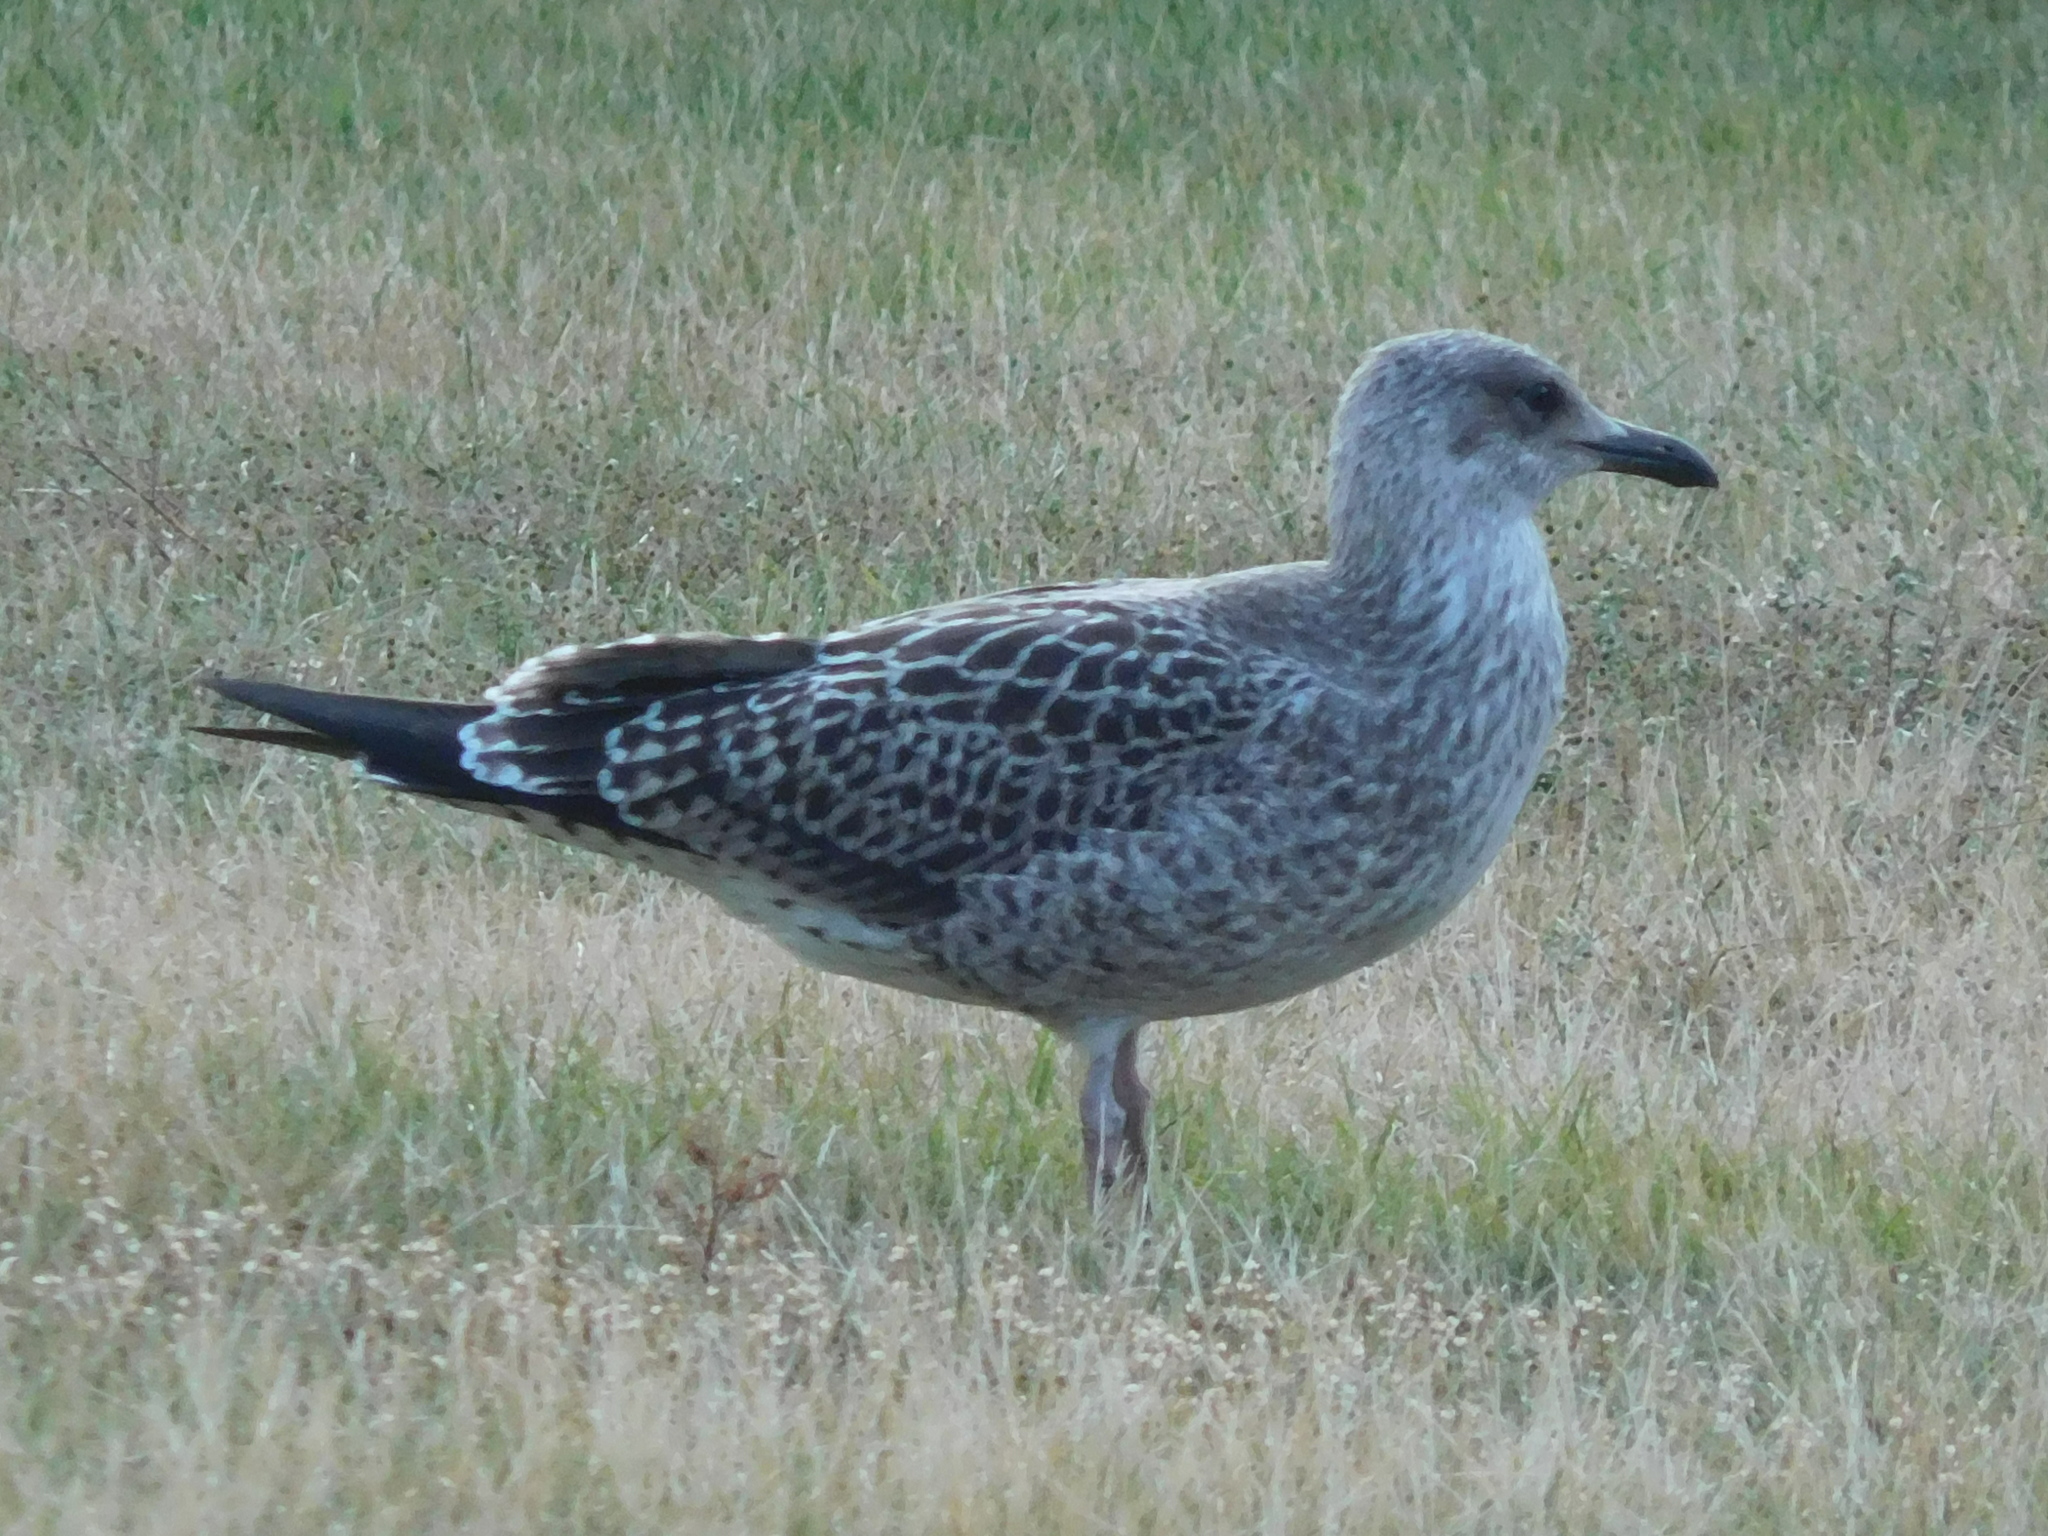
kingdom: Animalia
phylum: Chordata
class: Aves
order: Charadriiformes
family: Laridae
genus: Larus
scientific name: Larus fuscus
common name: Lesser black-backed gull
